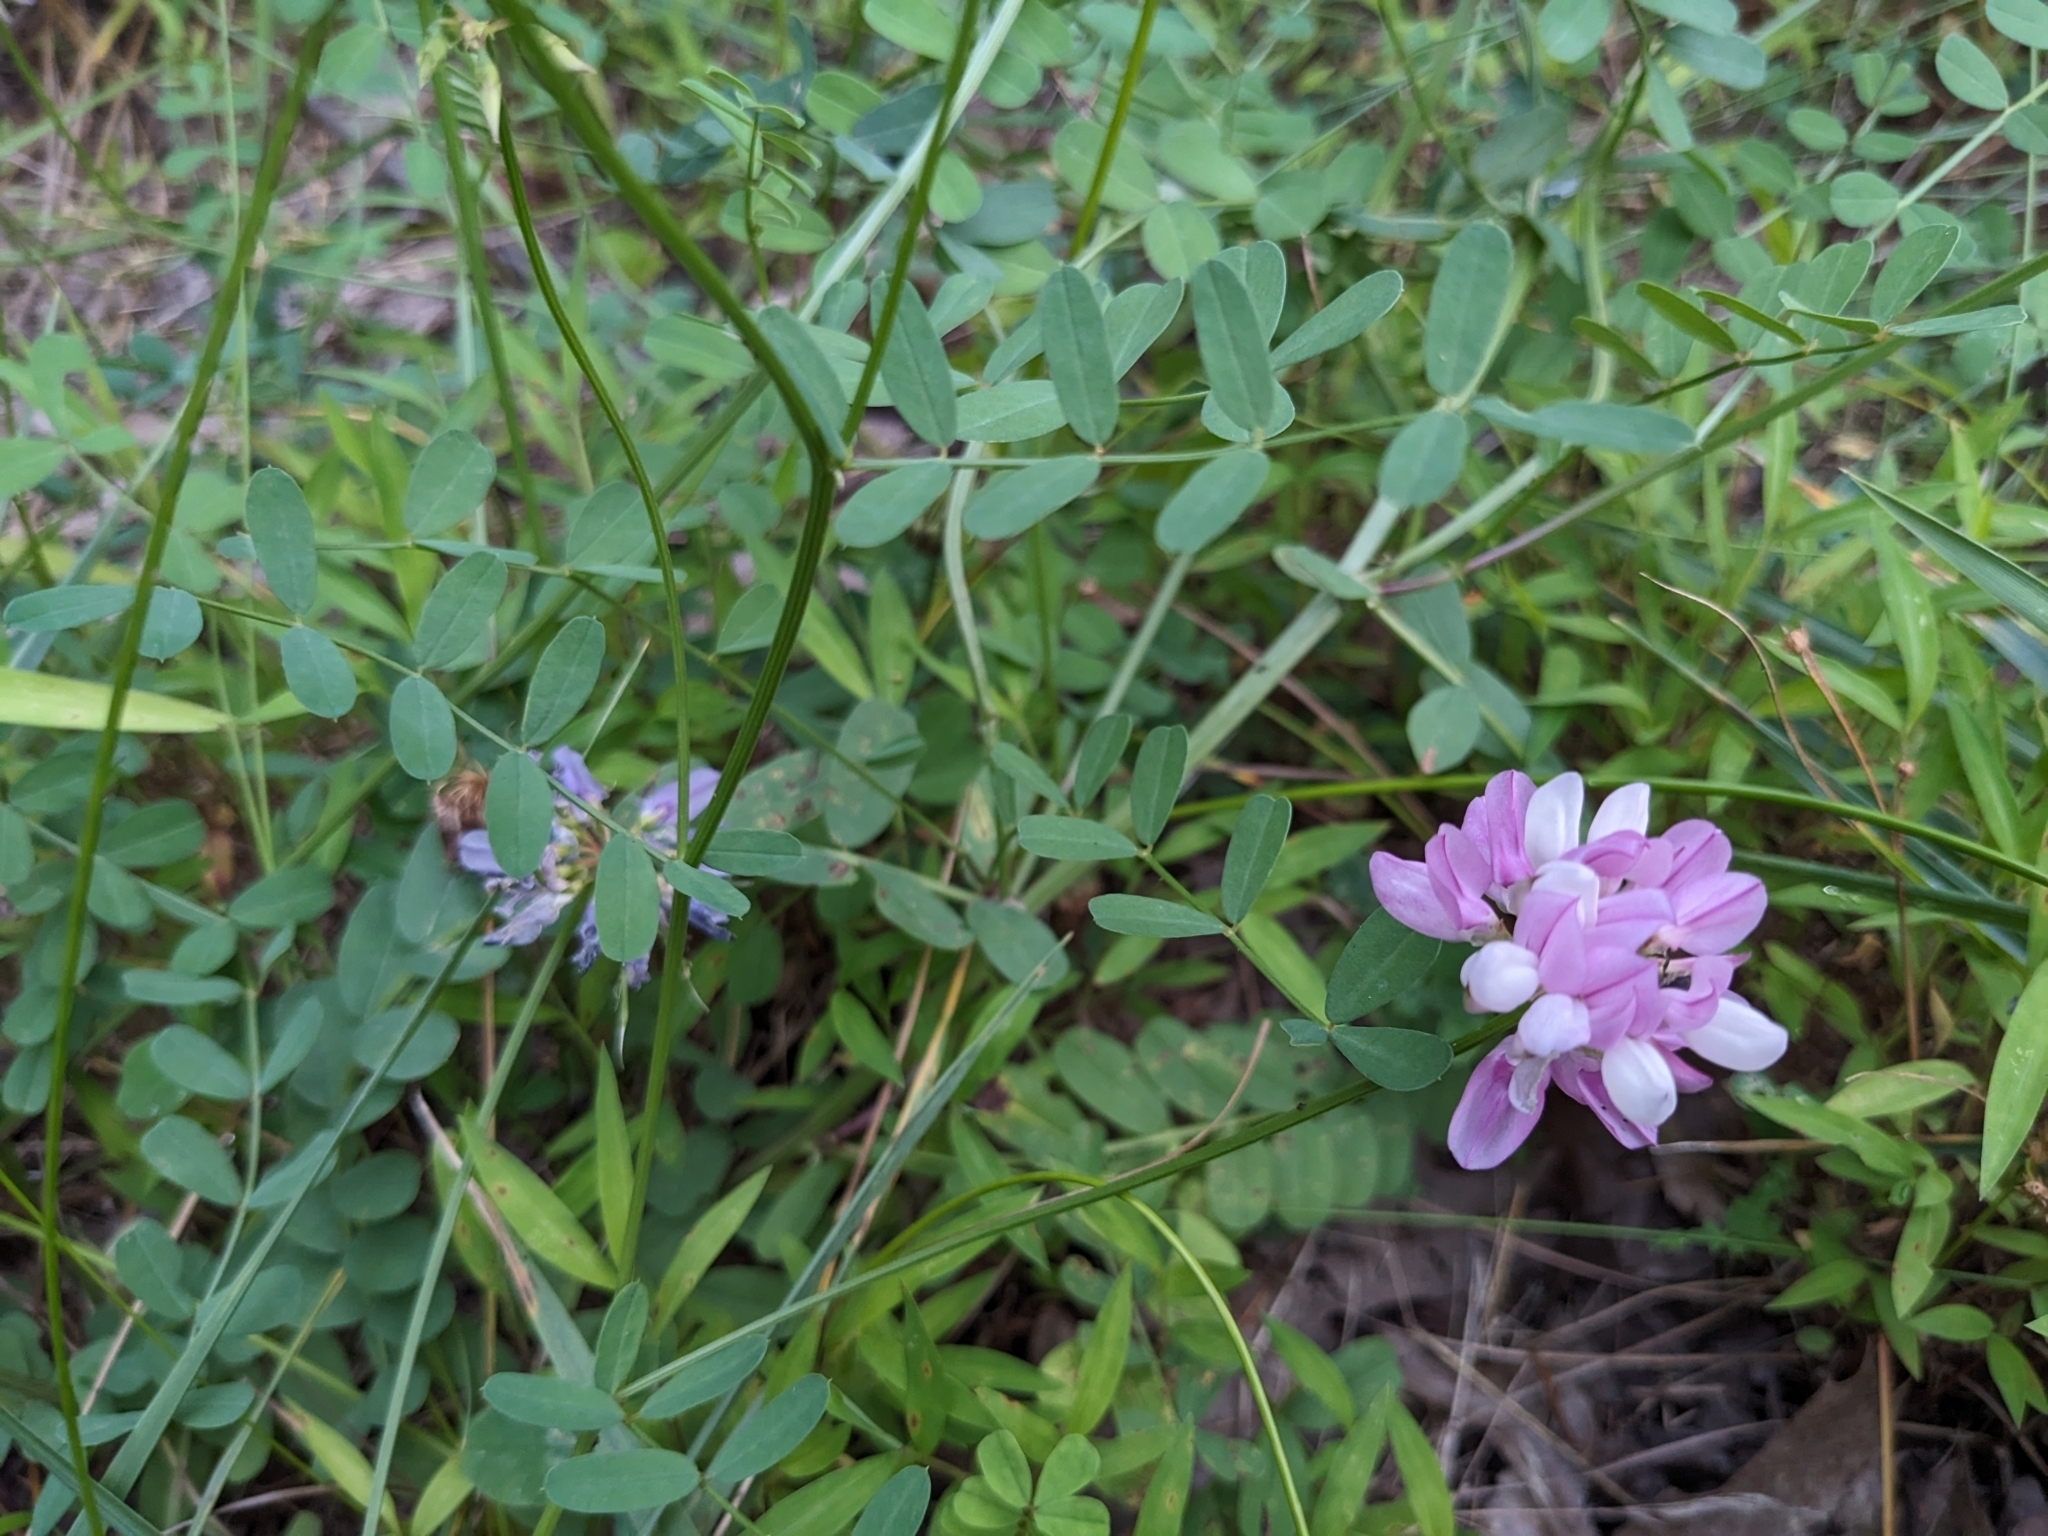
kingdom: Plantae
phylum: Tracheophyta
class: Magnoliopsida
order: Fabales
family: Fabaceae
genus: Coronilla
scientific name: Coronilla varia
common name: Crownvetch
